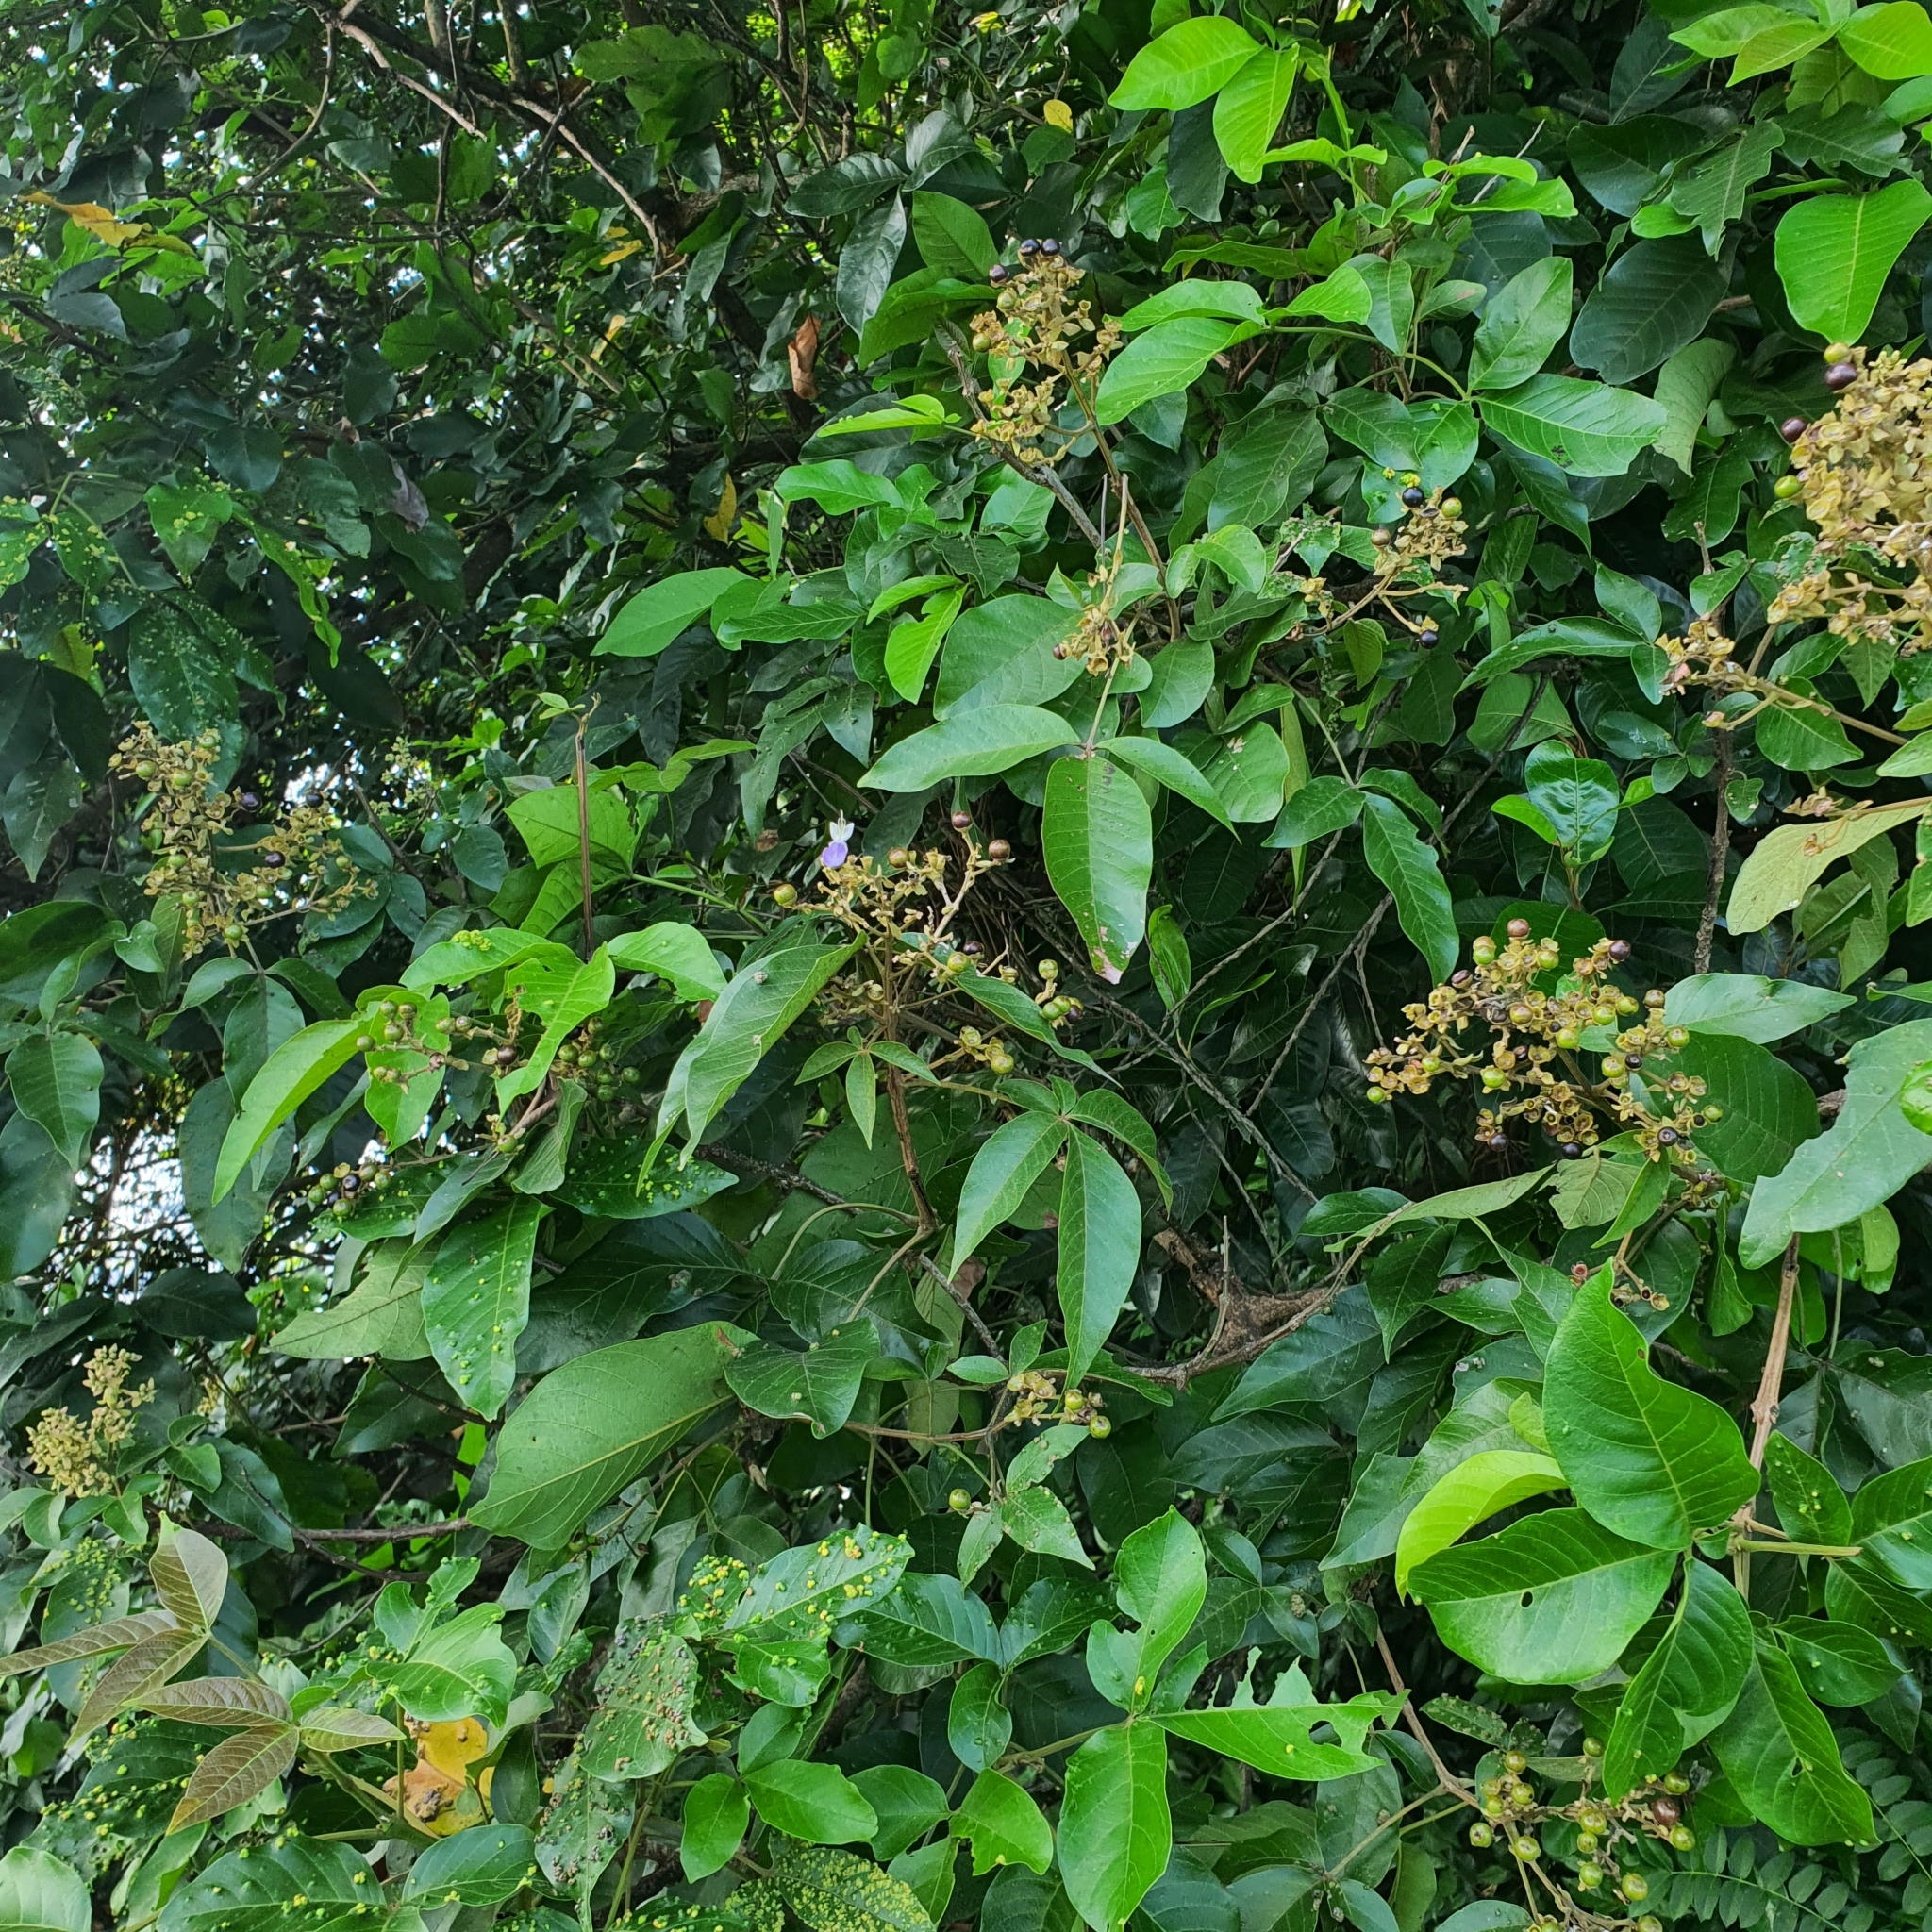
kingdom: Plantae
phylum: Tracheophyta
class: Magnoliopsida
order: Lamiales
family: Lamiaceae
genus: Vitex
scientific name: Vitex pinnata
